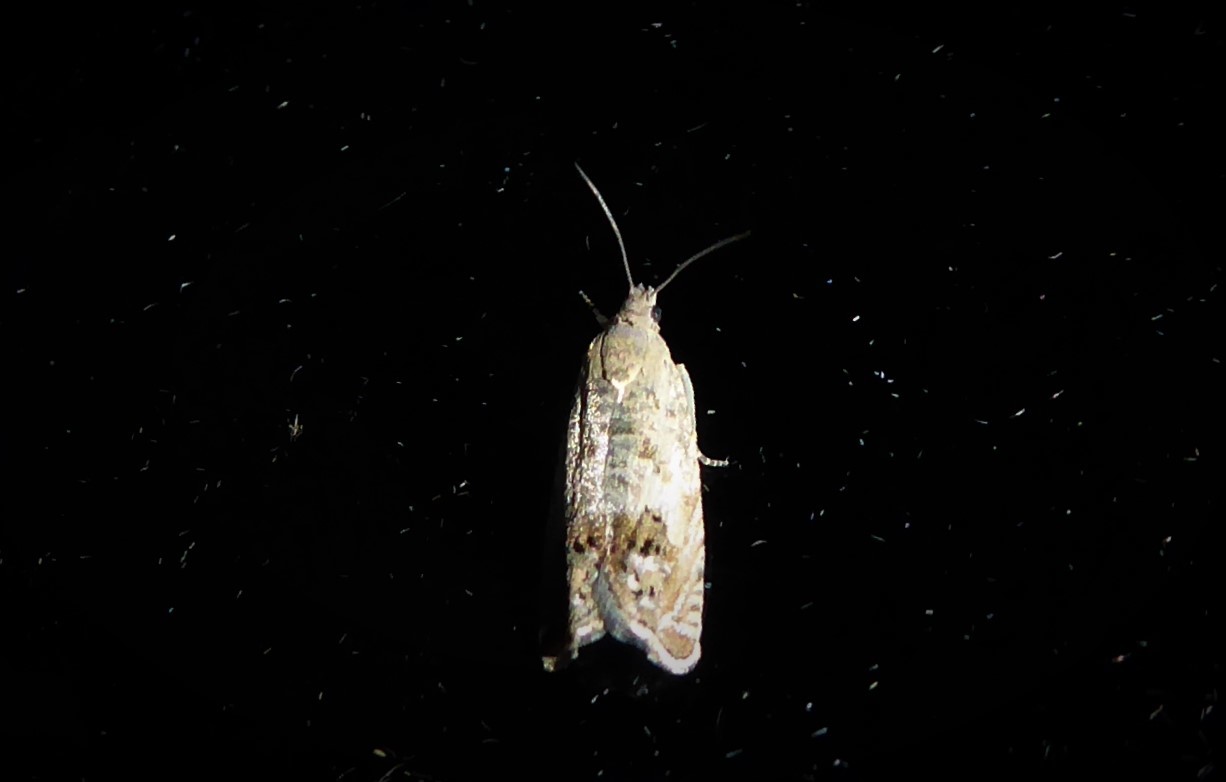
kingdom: Animalia
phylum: Arthropoda
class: Insecta
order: Lepidoptera
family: Tortricidae
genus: Cydia
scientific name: Cydia succedana
